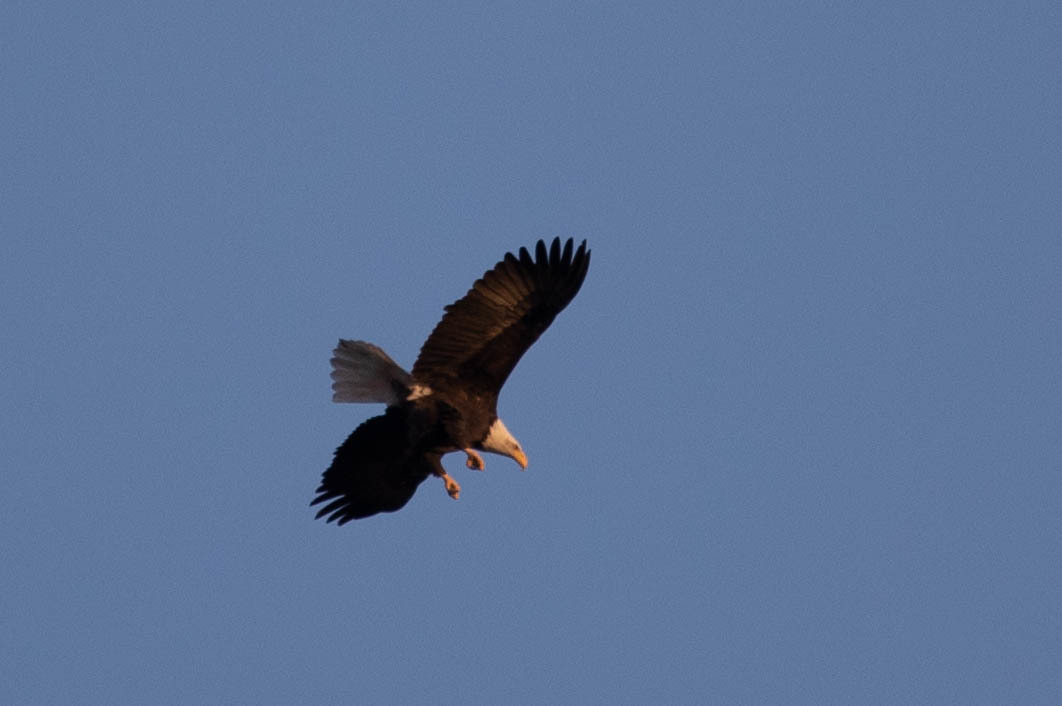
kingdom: Animalia
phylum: Chordata
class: Aves
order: Accipitriformes
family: Accipitridae
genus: Haliaeetus
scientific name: Haliaeetus leucocephalus
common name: Bald eagle
